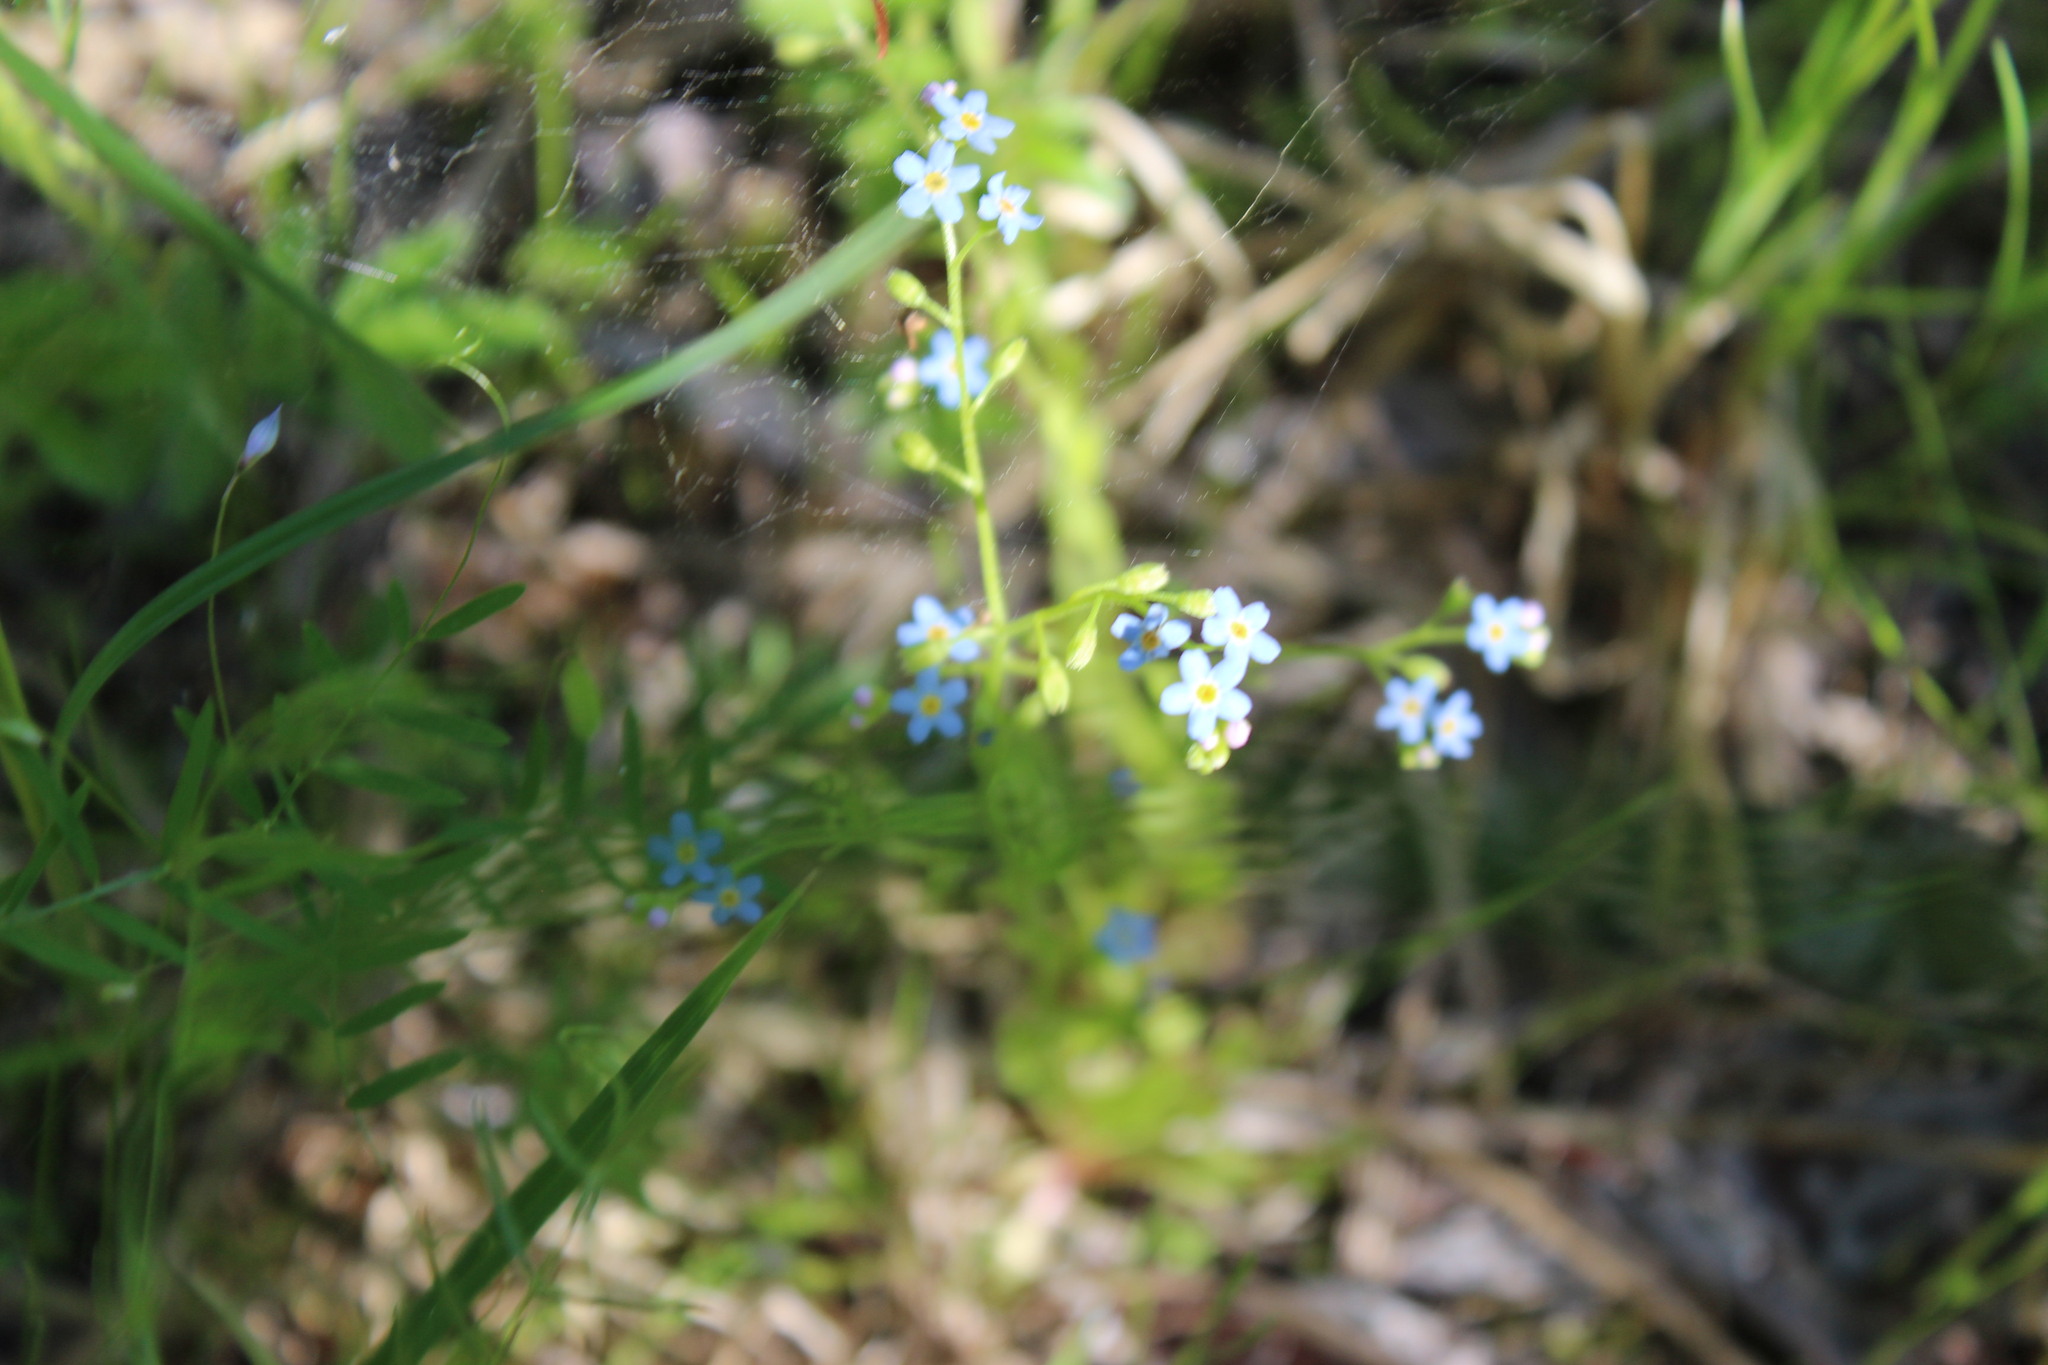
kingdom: Plantae
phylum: Tracheophyta
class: Magnoliopsida
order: Boraginales
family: Boraginaceae
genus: Myosotis
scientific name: Myosotis laxa
